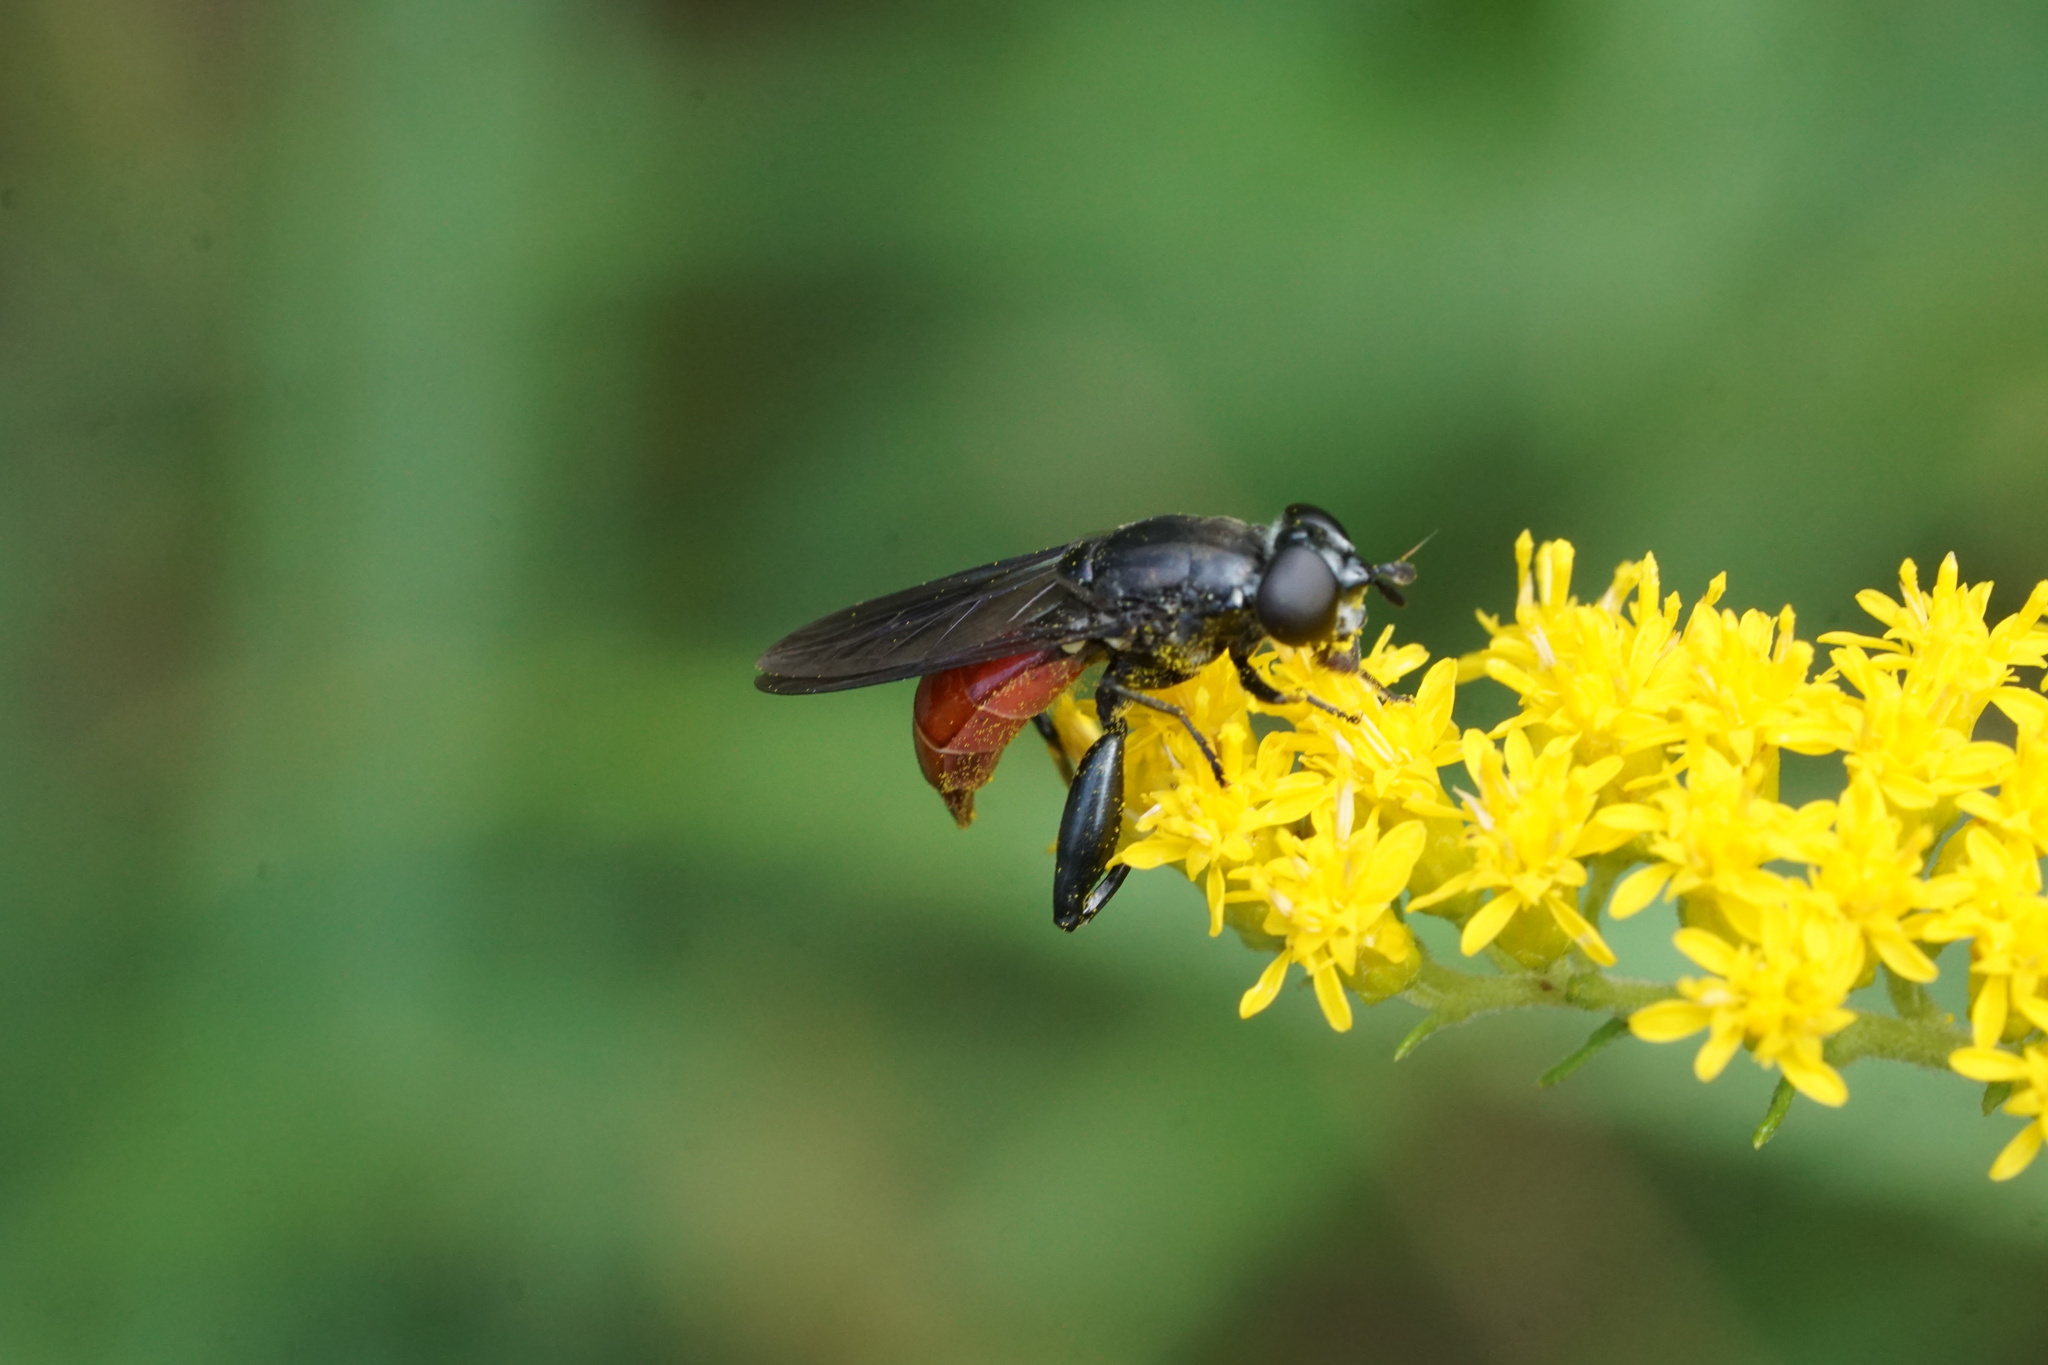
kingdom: Animalia
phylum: Arthropoda
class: Insecta
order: Diptera
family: Syrphidae
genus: Chalcosyrphus
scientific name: Chalcosyrphus piger
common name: Short-haired leafwalker
